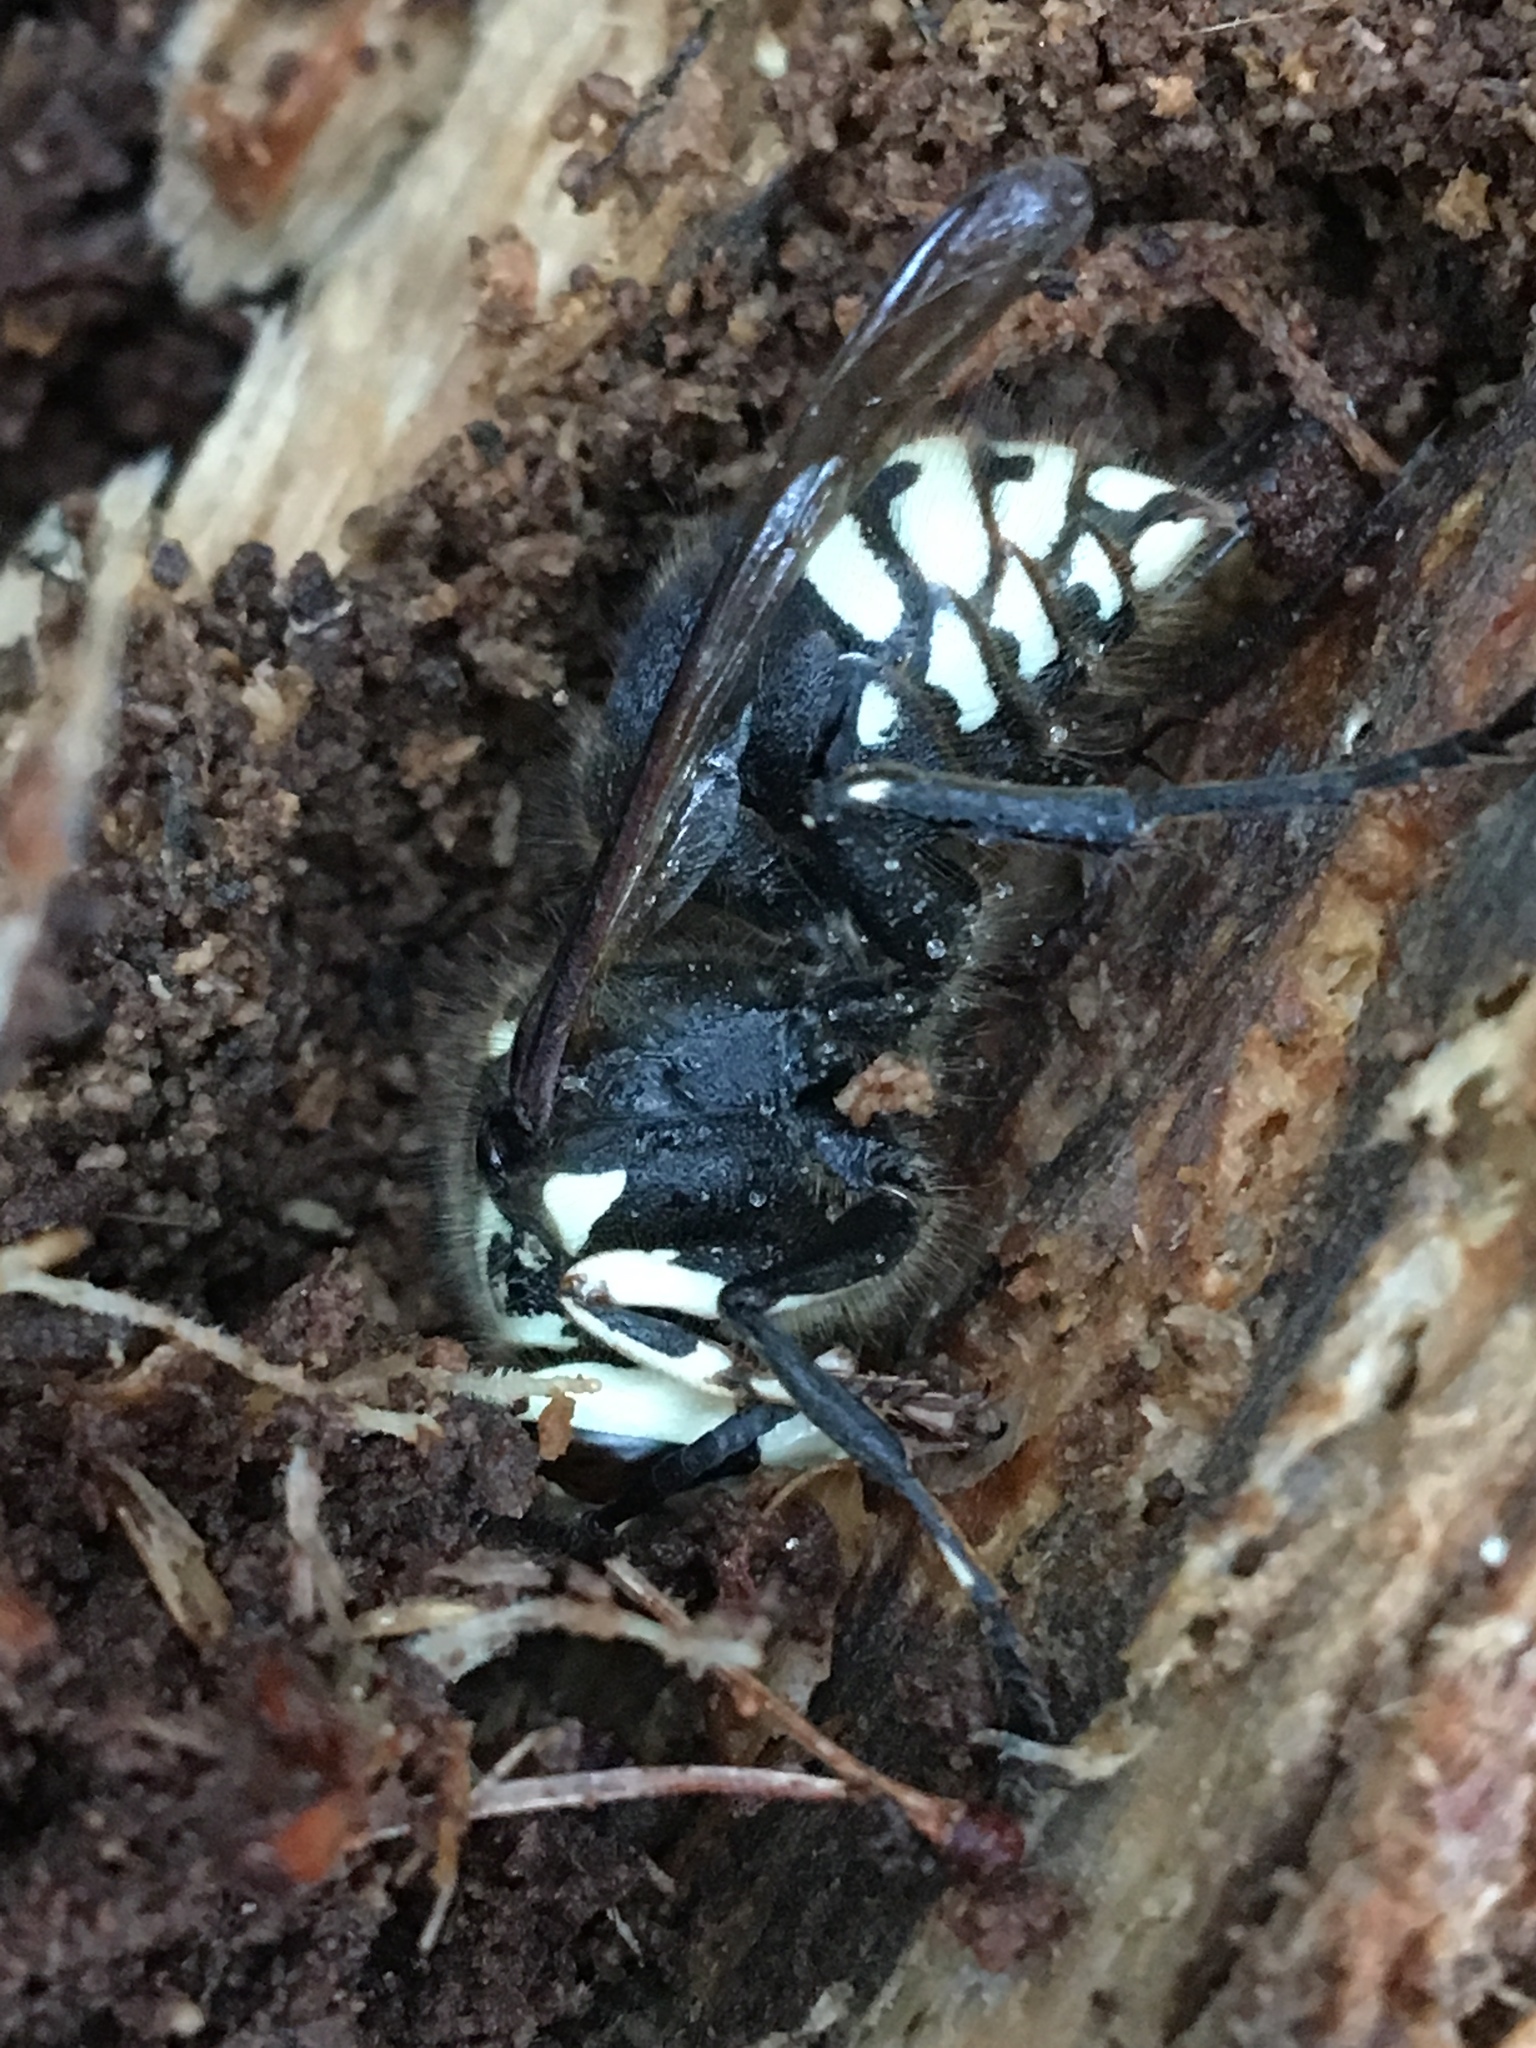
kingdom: Animalia
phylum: Arthropoda
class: Insecta
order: Hymenoptera
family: Vespidae
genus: Dolichovespula
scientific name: Dolichovespula maculata
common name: Bald-faced hornet
